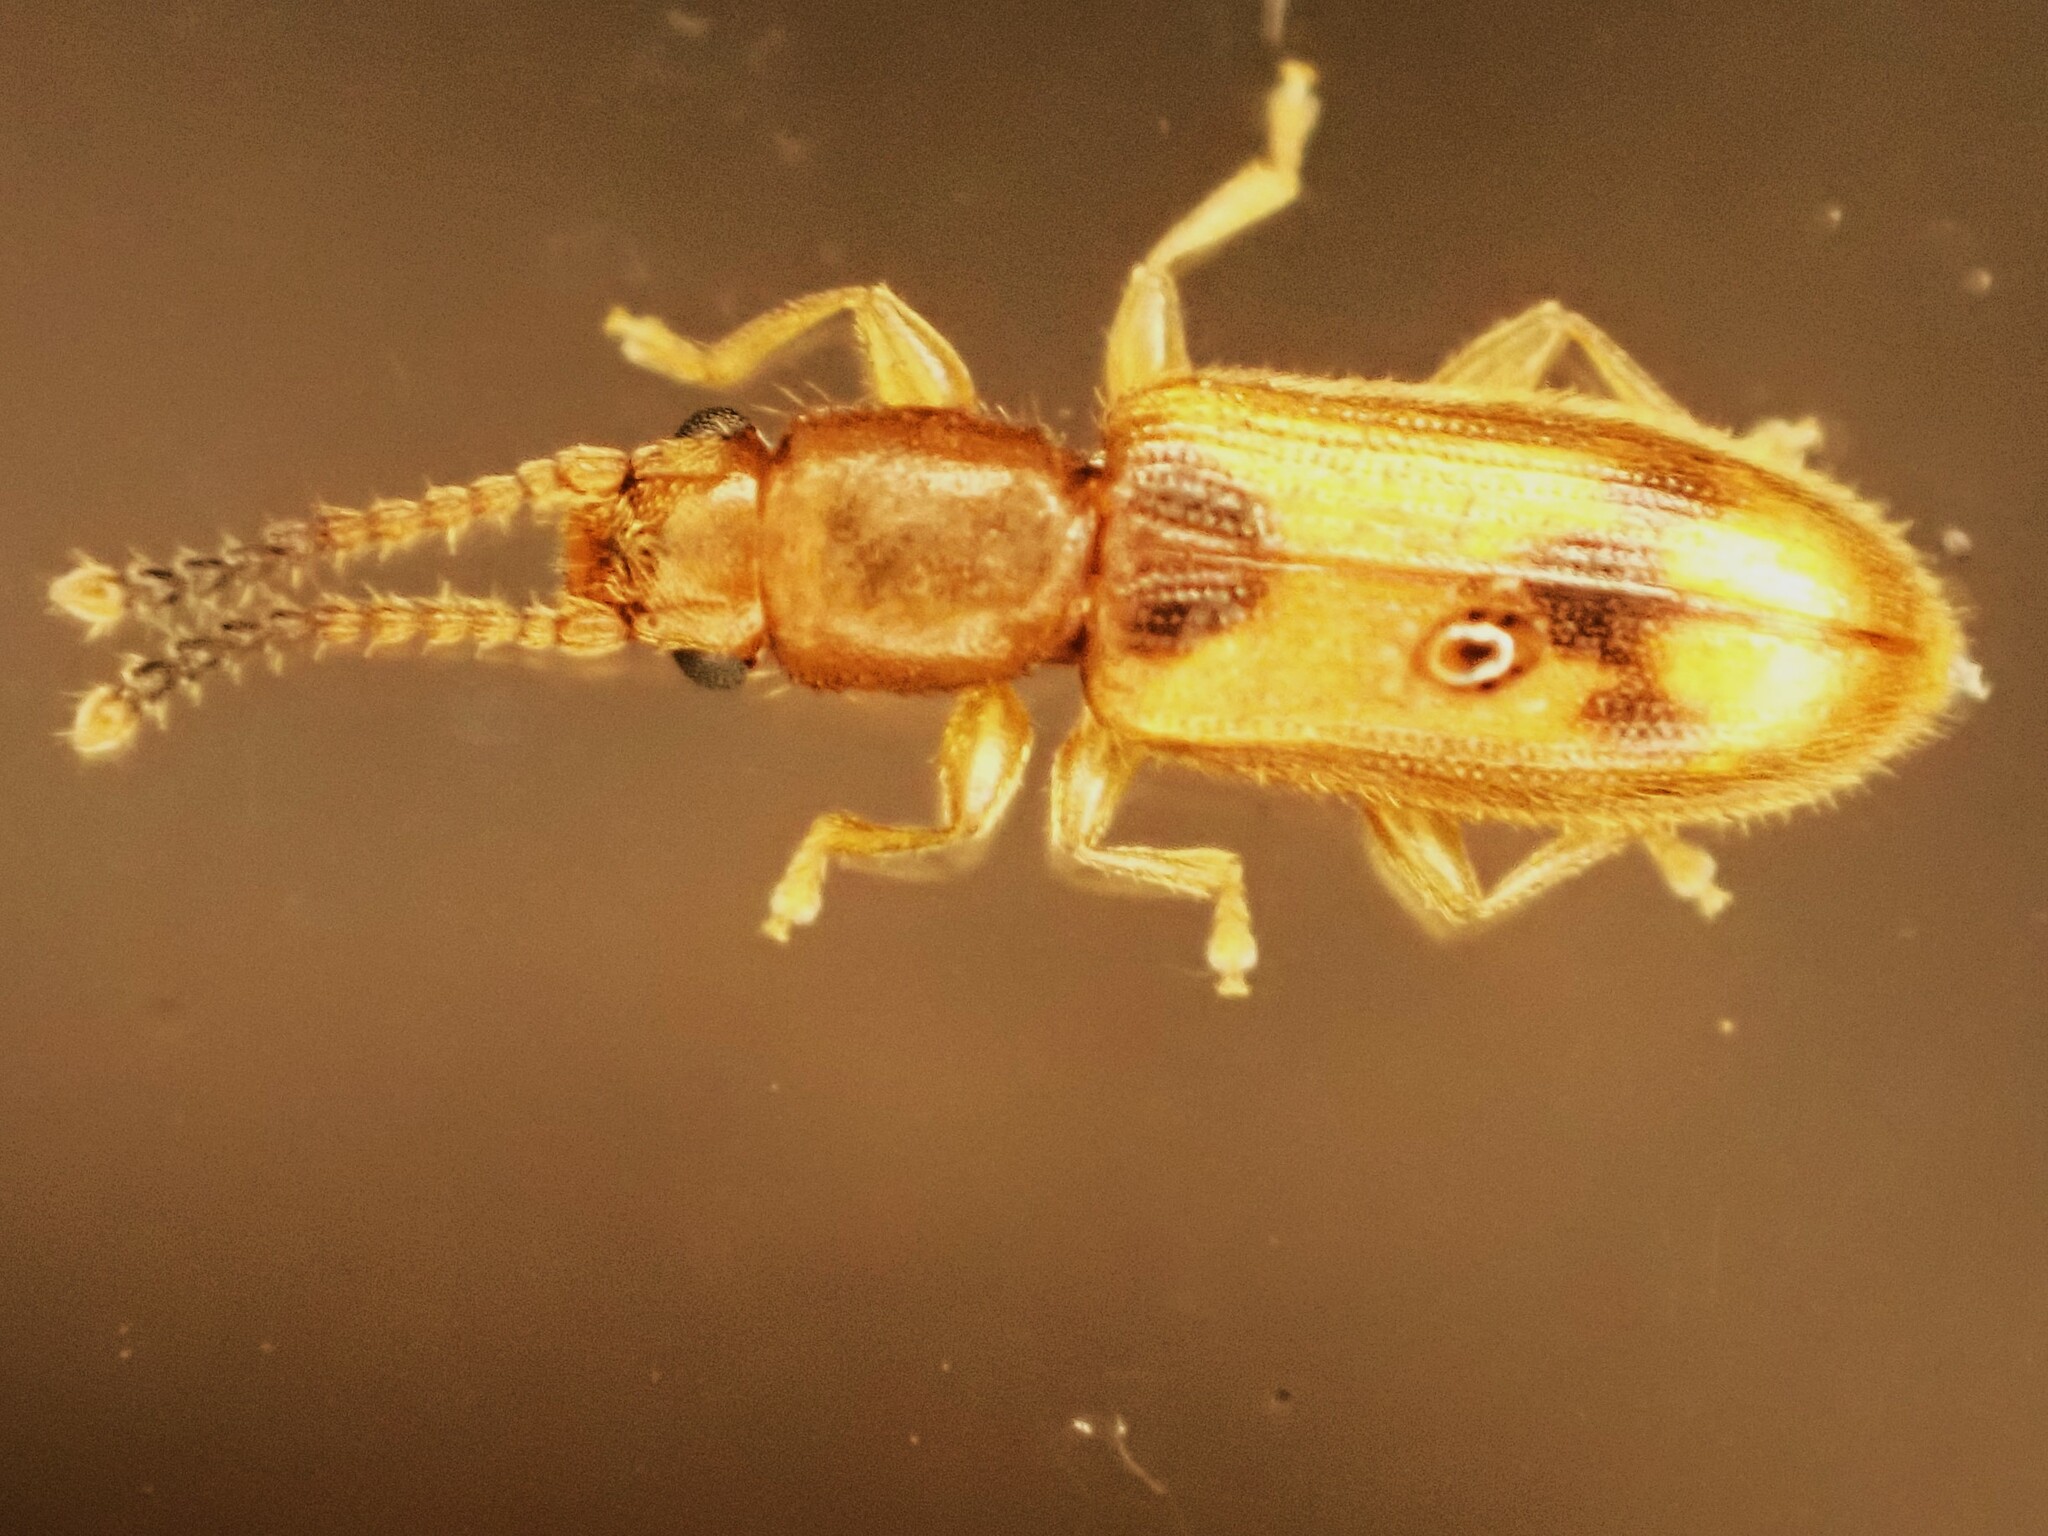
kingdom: Animalia
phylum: Arthropoda
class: Insecta
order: Coleoptera
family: Silvanidae
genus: Cryptamorpha
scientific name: Cryptamorpha desjardinsi
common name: Cryptamorpha
